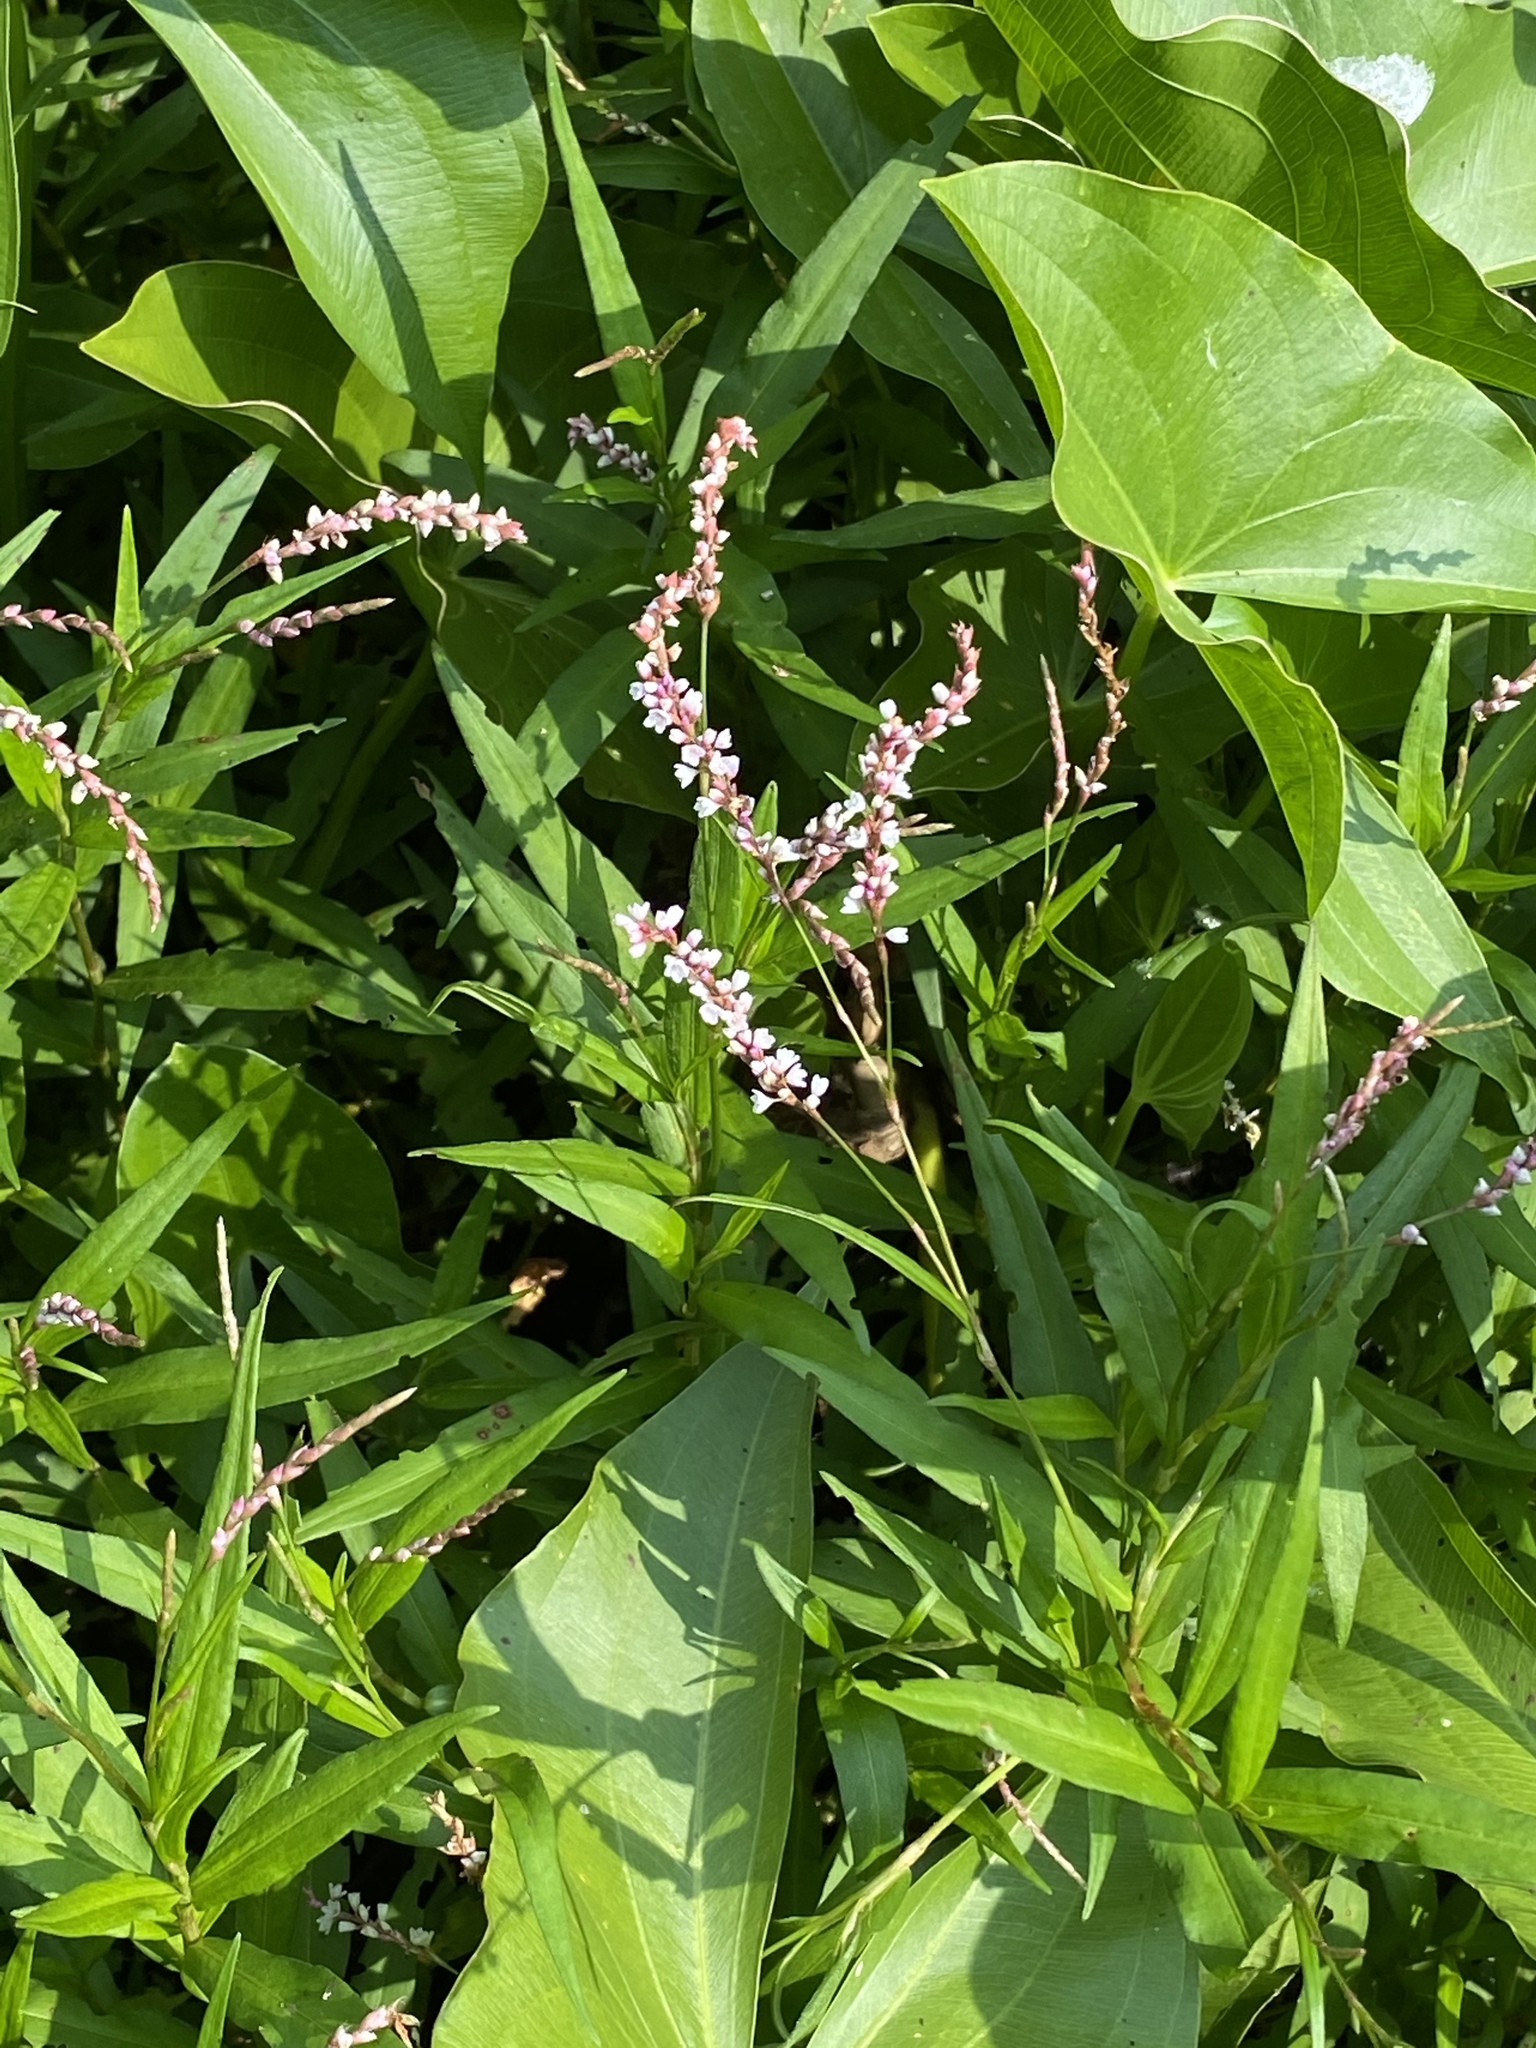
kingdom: Plantae
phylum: Tracheophyta
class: Magnoliopsida
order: Caryophyllales
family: Polygonaceae
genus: Persicaria
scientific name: Persicaria hydropiperoides
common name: Swamp smartweed
